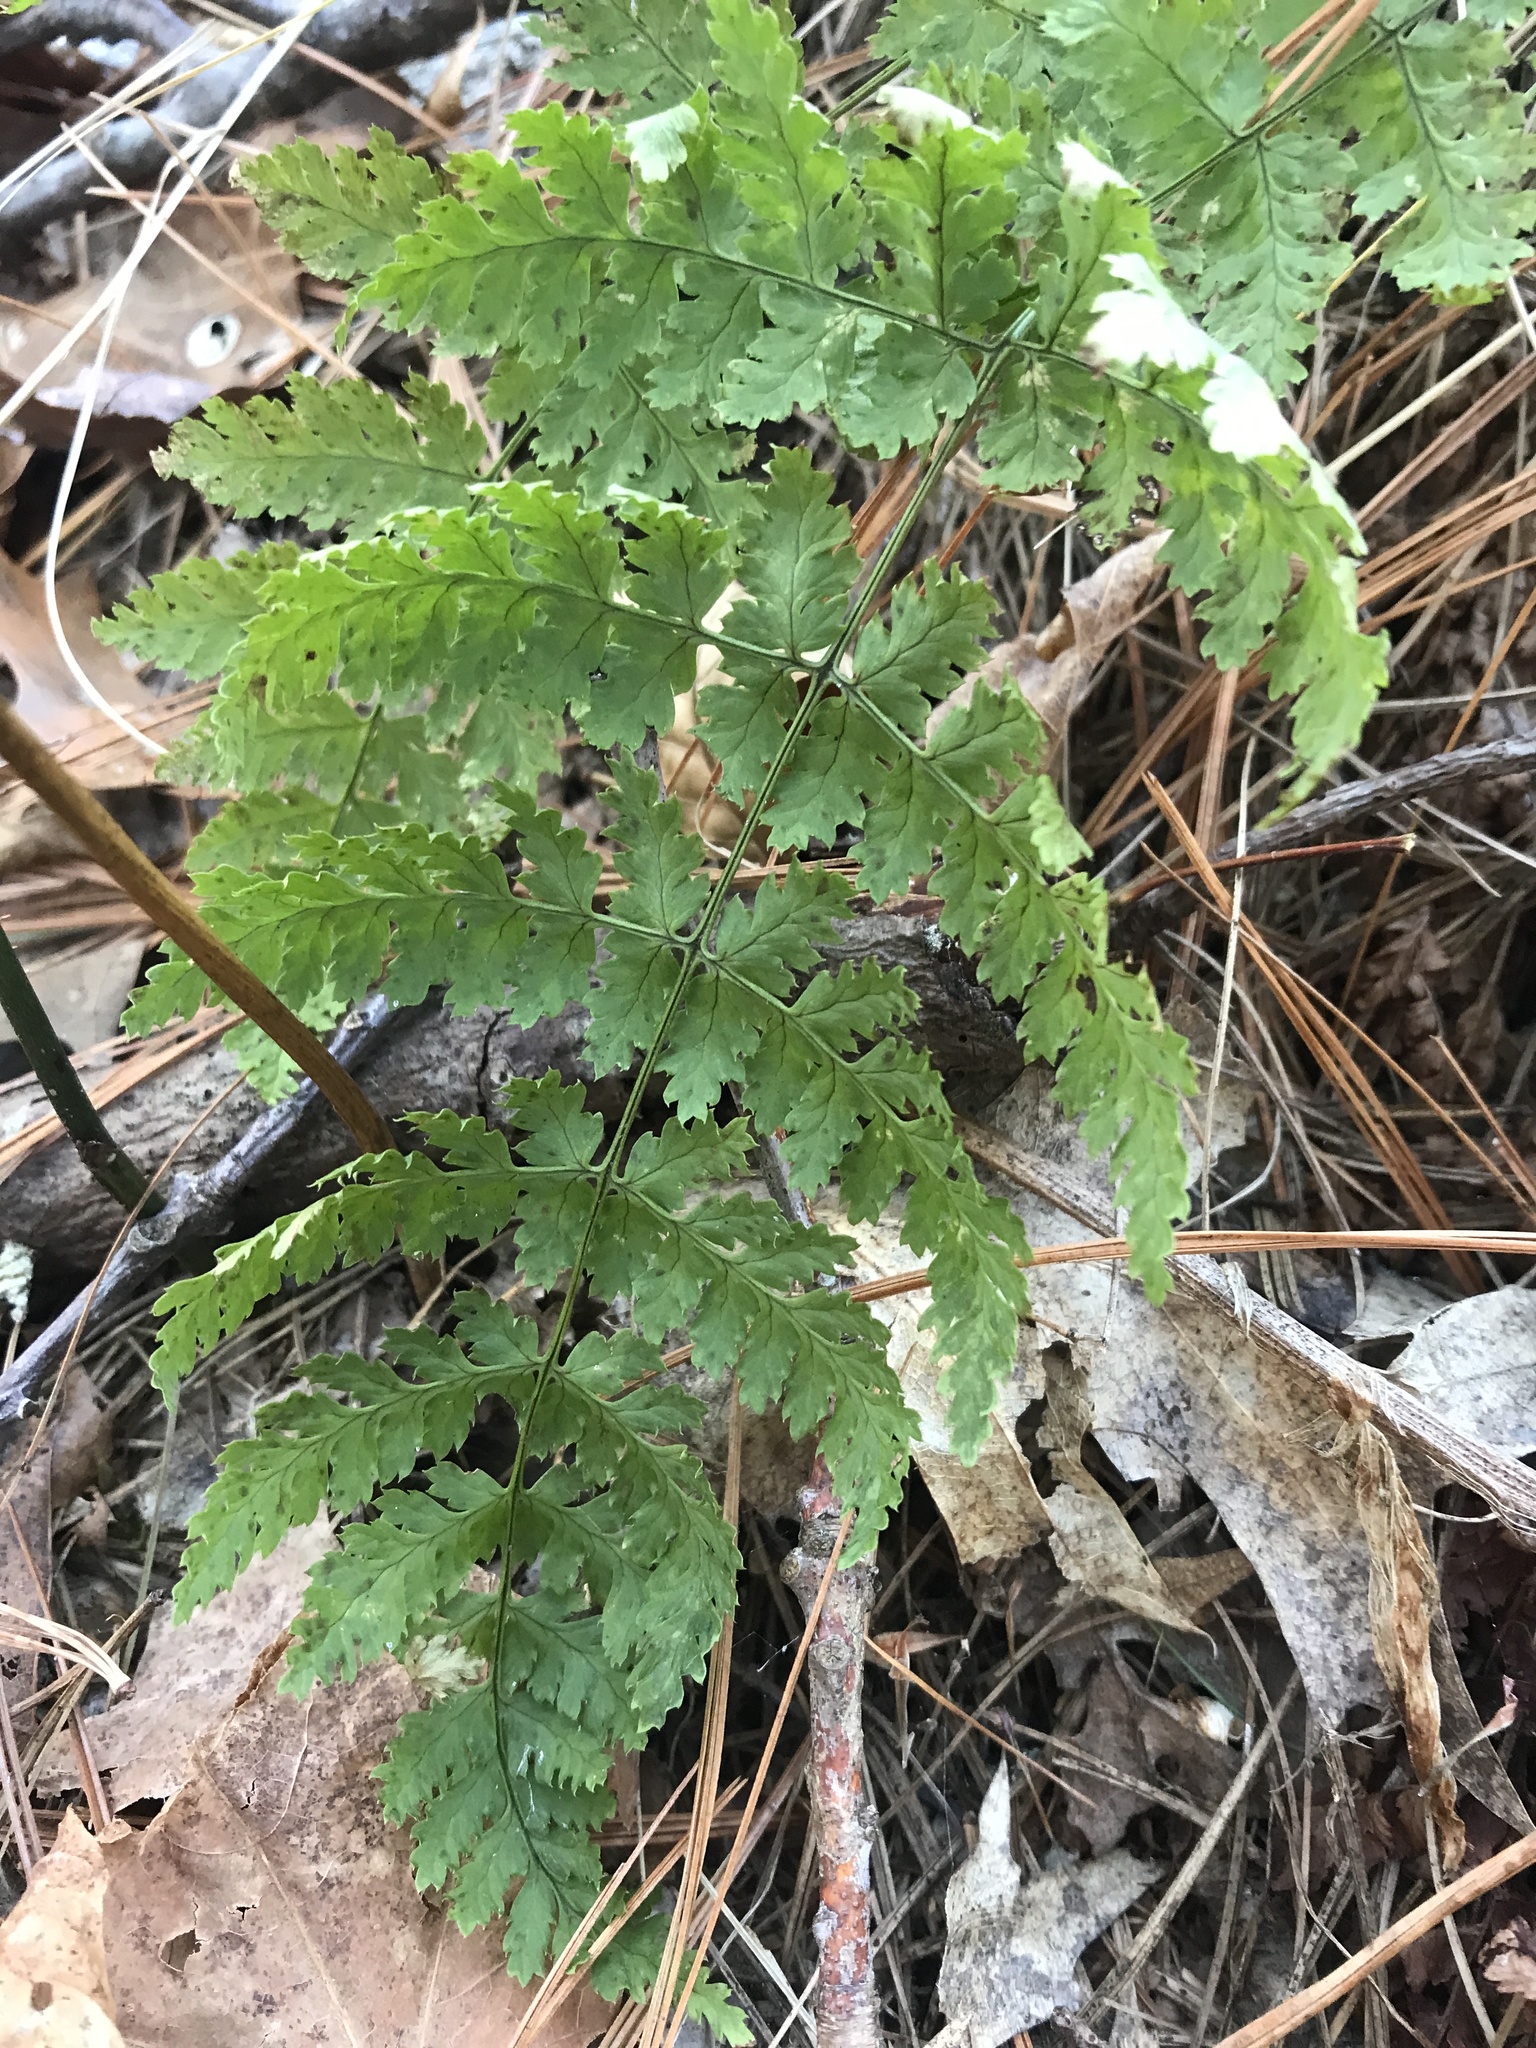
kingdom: Plantae
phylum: Tracheophyta
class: Polypodiopsida
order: Polypodiales
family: Dryopteridaceae
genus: Dryopteris
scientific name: Dryopteris intermedia
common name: Evergreen wood fern
